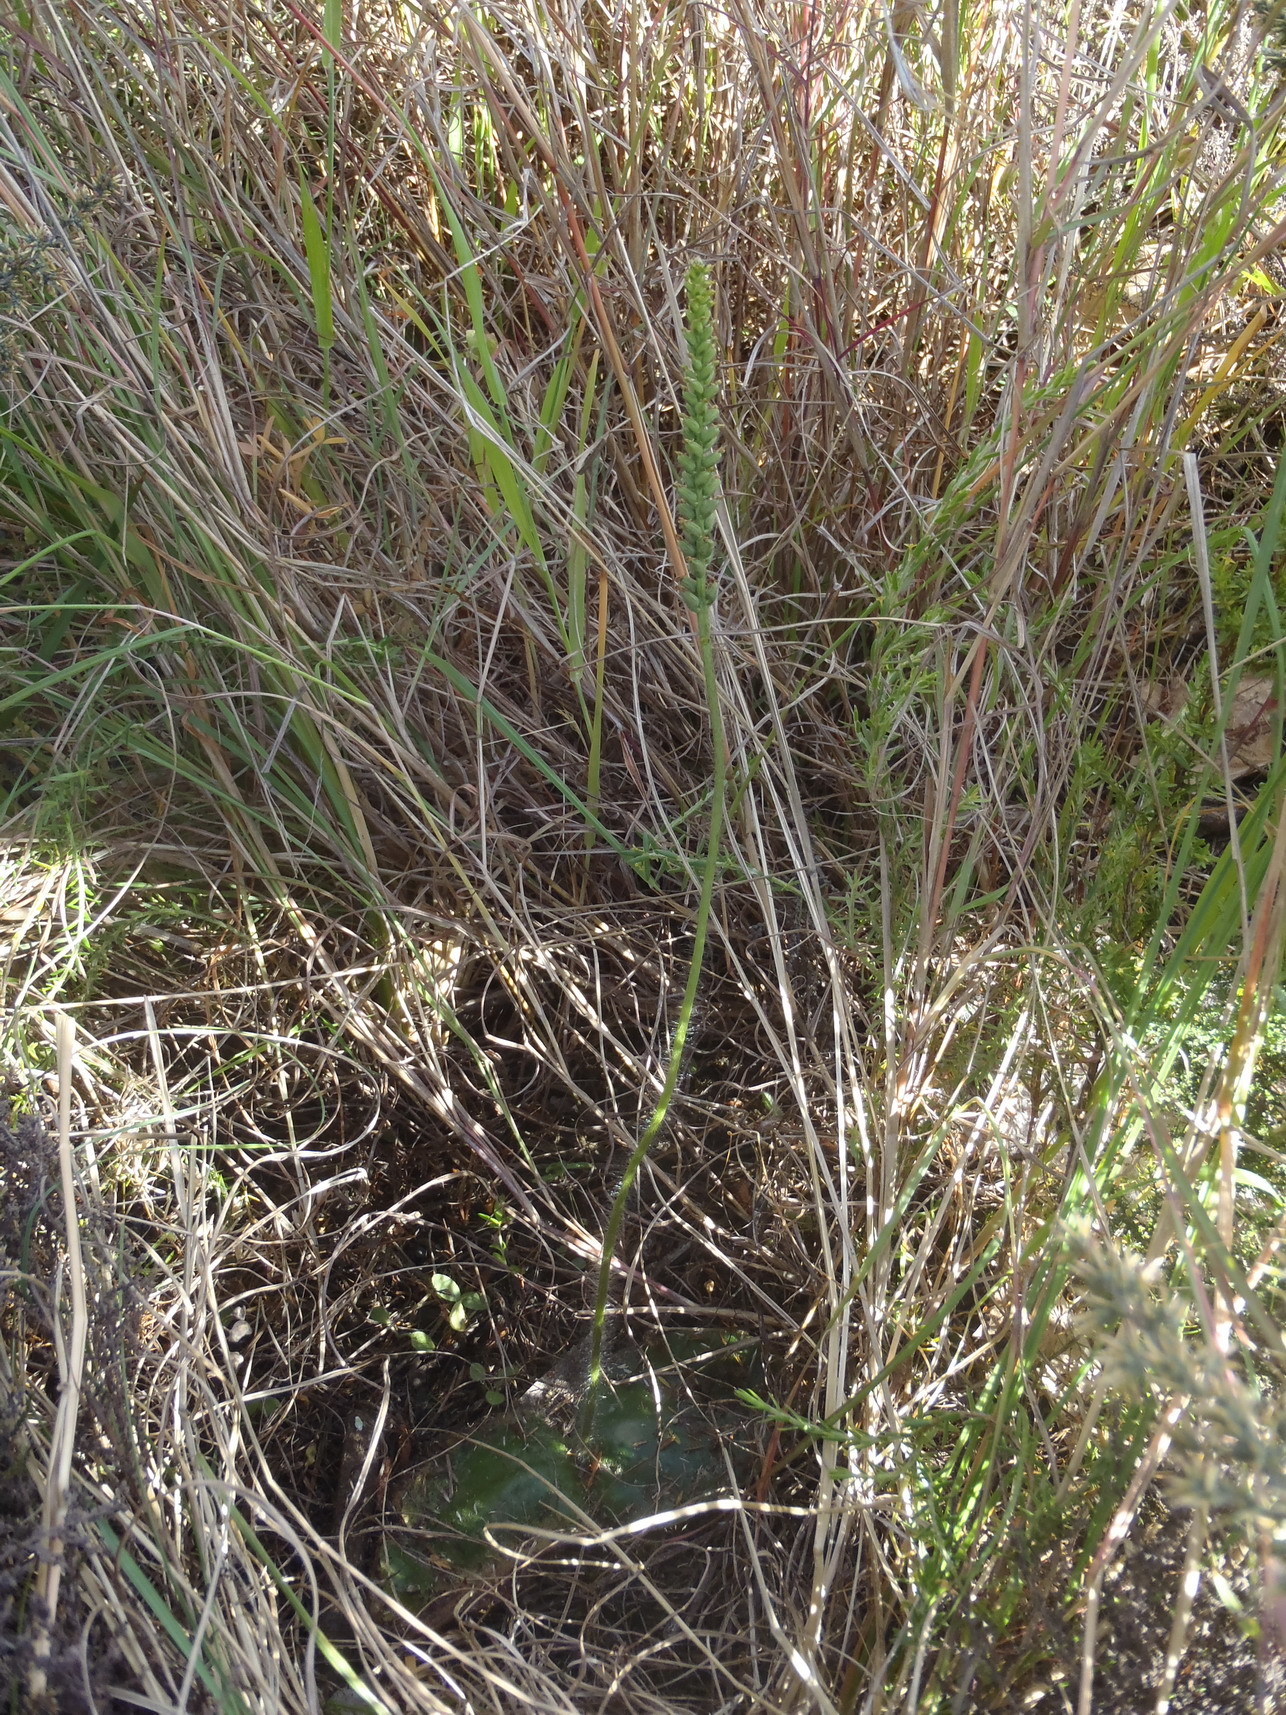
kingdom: Plantae
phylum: Tracheophyta
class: Liliopsida
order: Asparagales
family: Orchidaceae
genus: Holothrix
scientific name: Holothrix condensata
